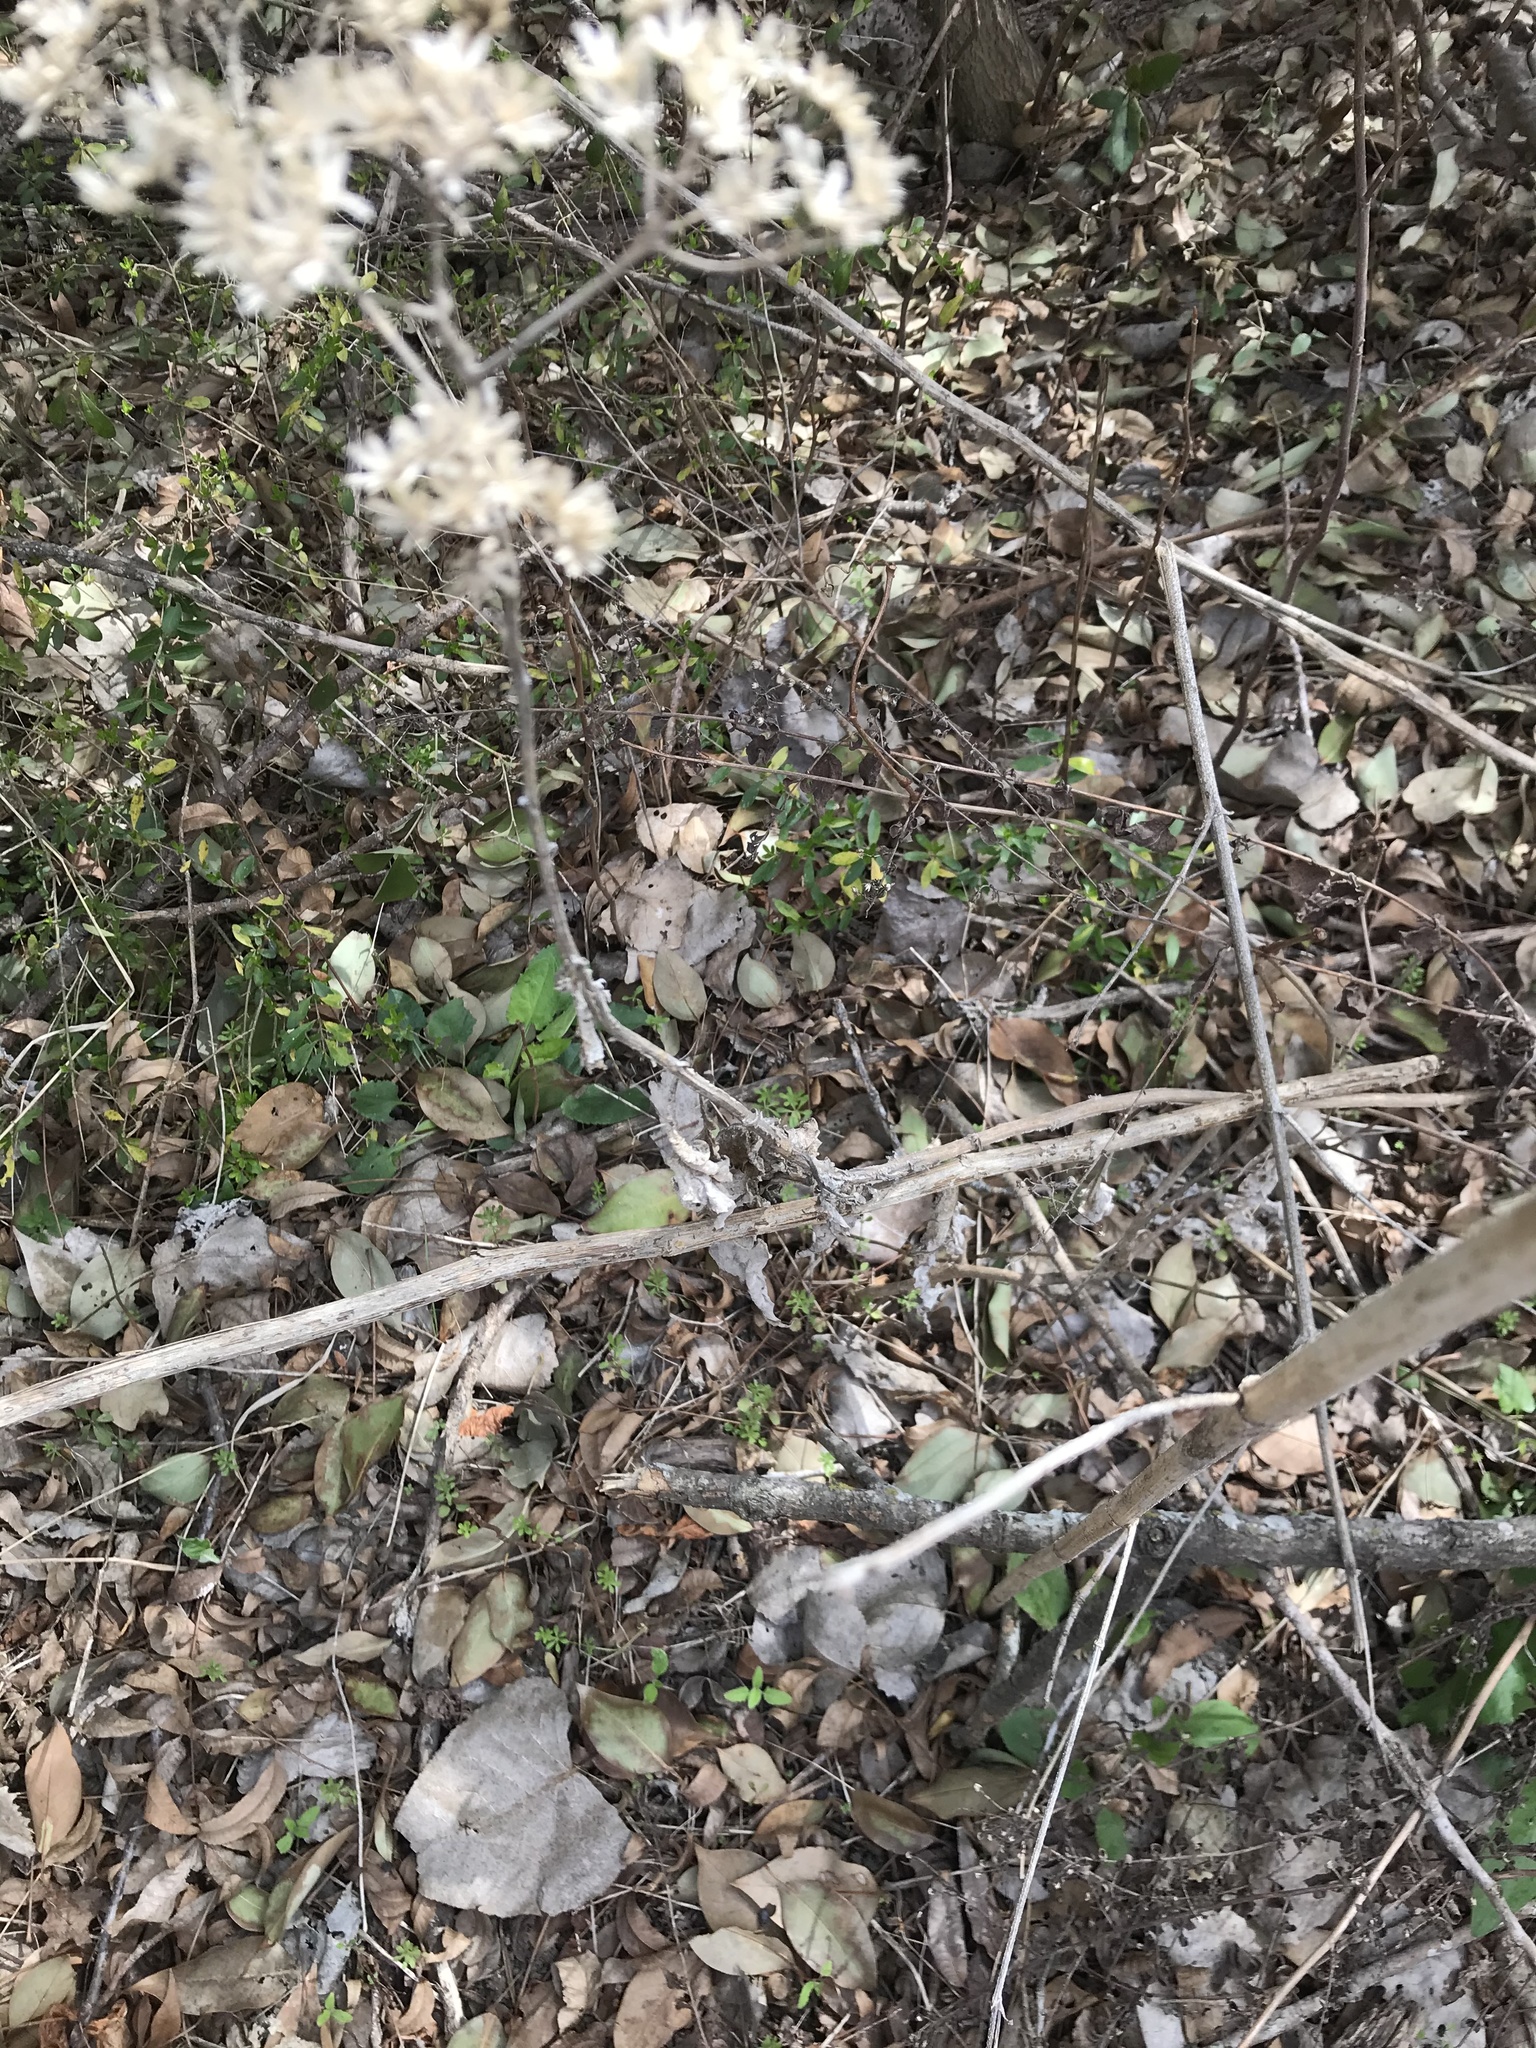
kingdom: Plantae
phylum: Tracheophyta
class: Magnoliopsida
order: Asterales
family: Asteraceae
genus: Verbesina
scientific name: Verbesina virginica
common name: Frostweed
